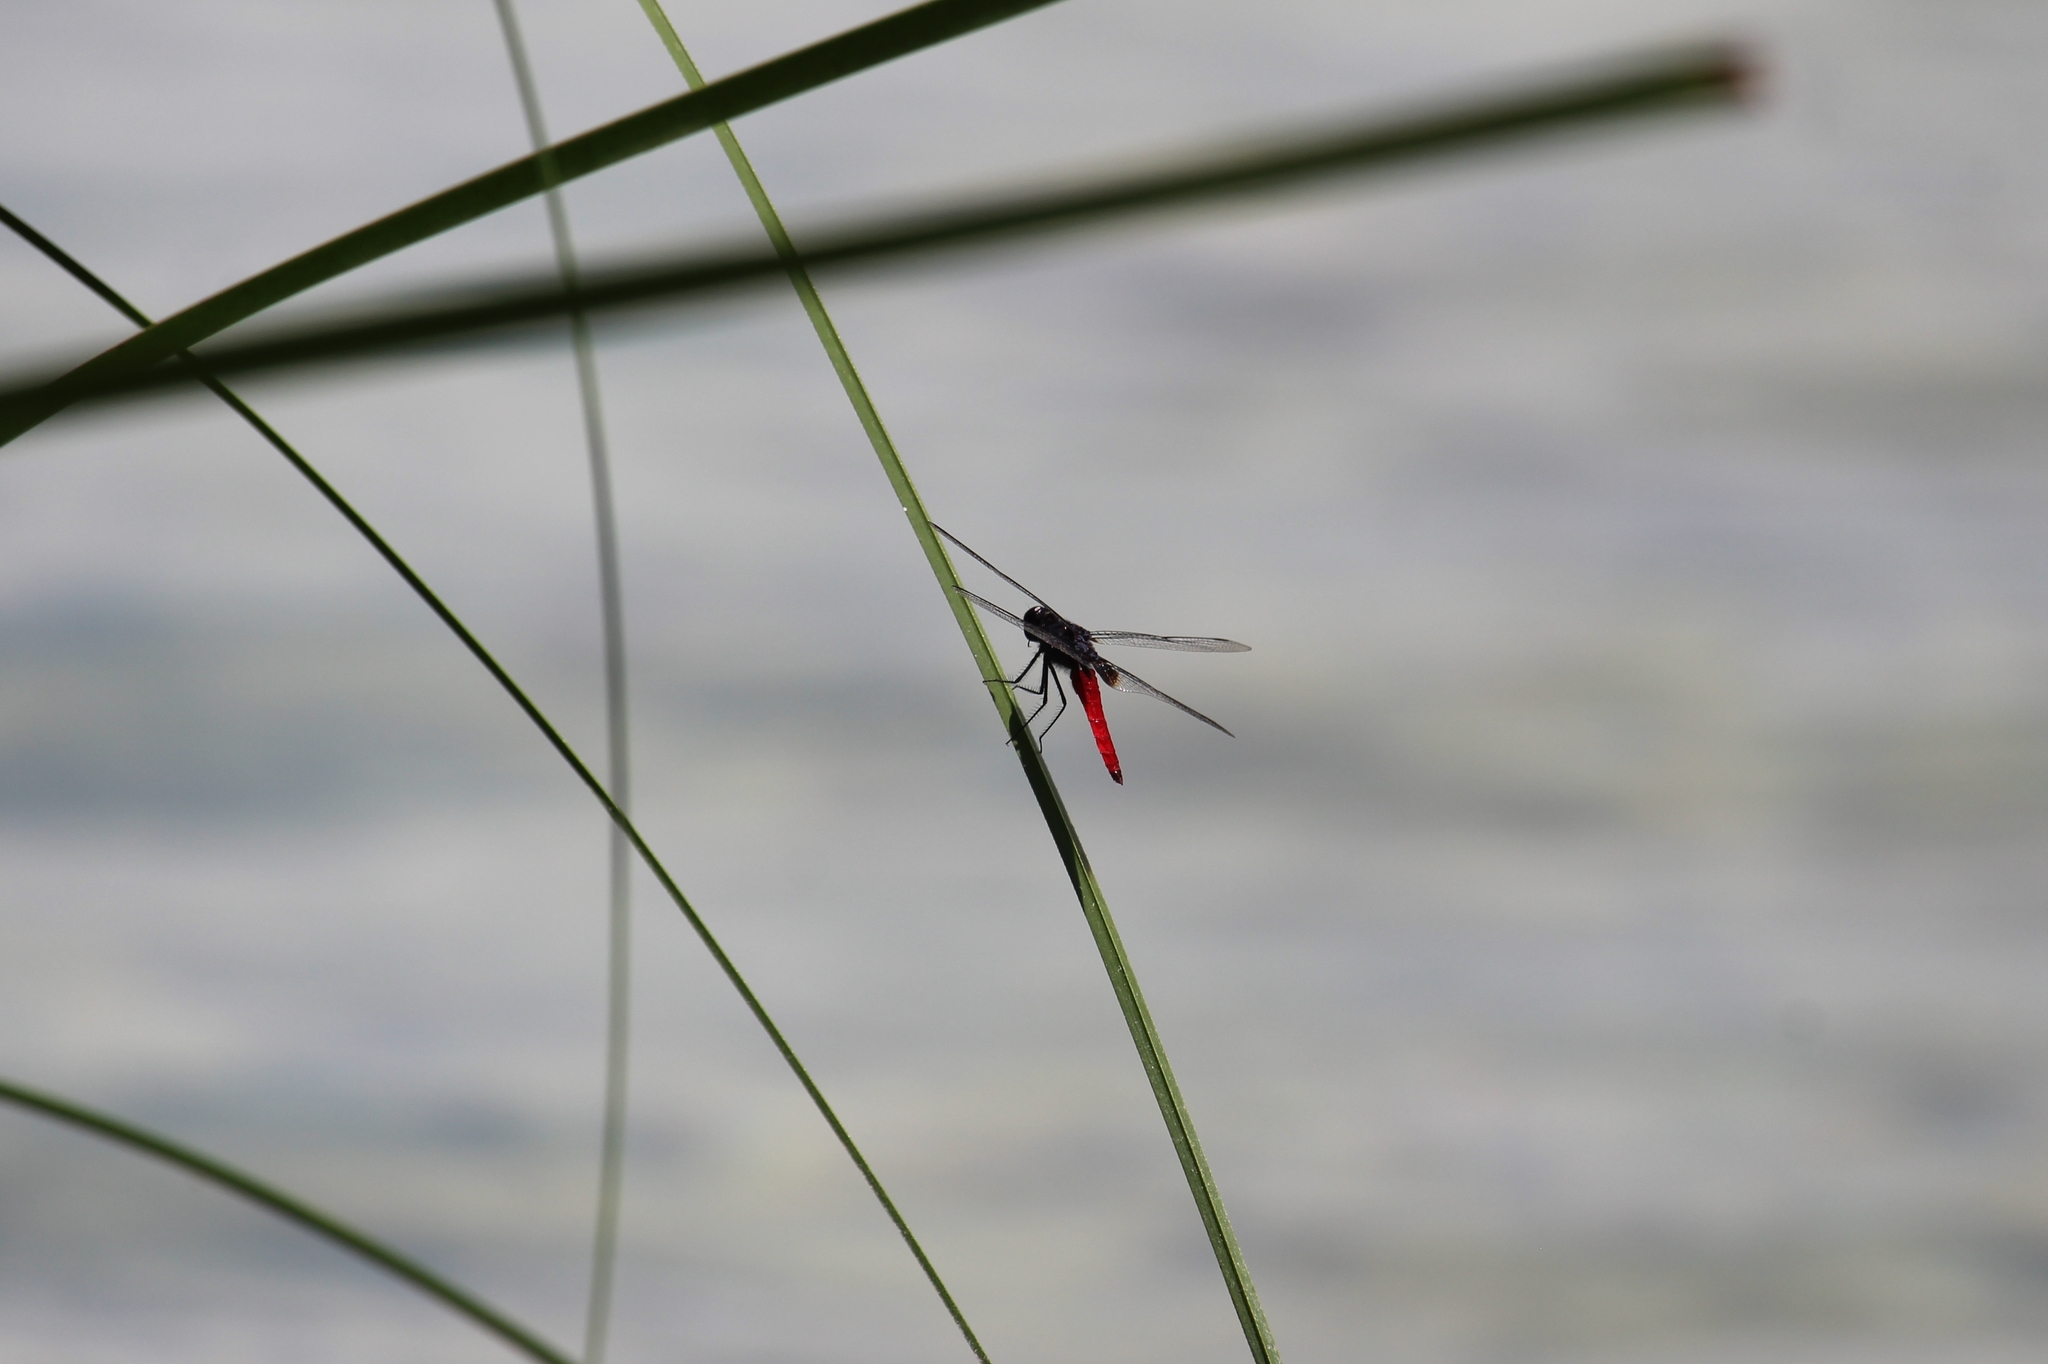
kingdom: Animalia
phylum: Arthropoda
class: Insecta
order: Odonata
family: Libellulidae
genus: Planiplax
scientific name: Planiplax sanguiniventris
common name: Mexican scarlet-tail
